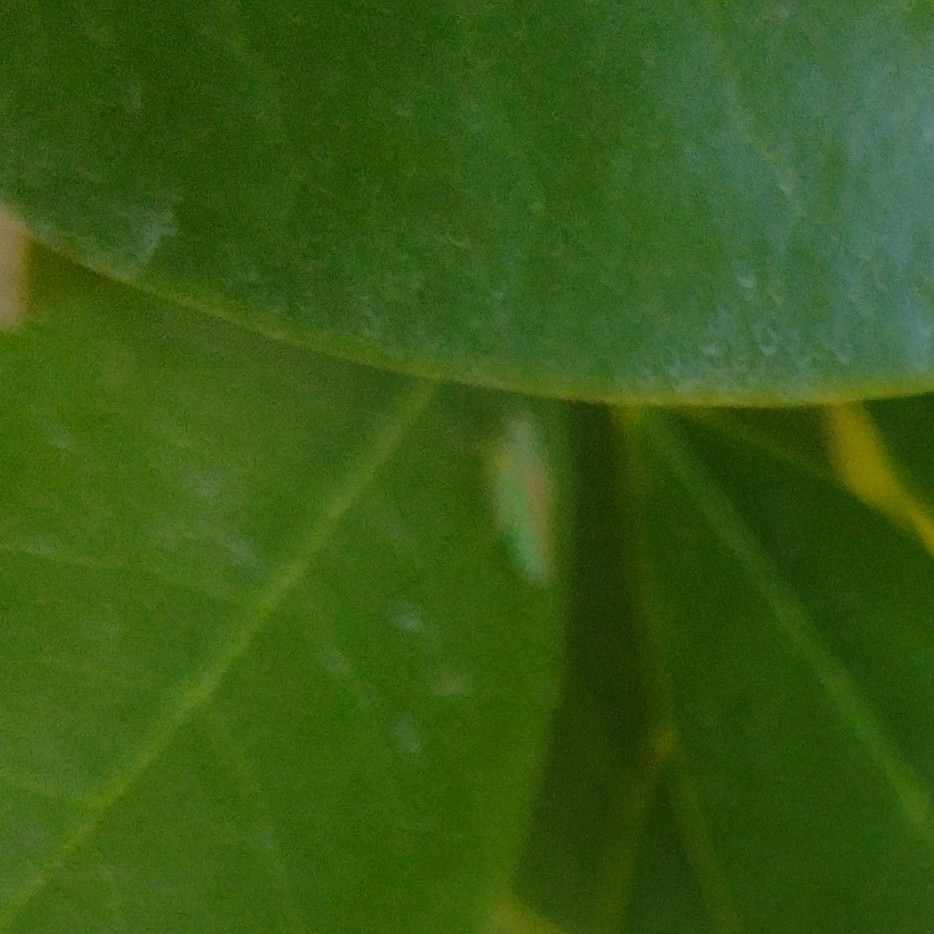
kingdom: Animalia
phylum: Arthropoda
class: Insecta
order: Hemiptera
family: Cicadellidae
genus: Graphocephala
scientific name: Graphocephala fennahi
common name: Rhododendron leafhopper
